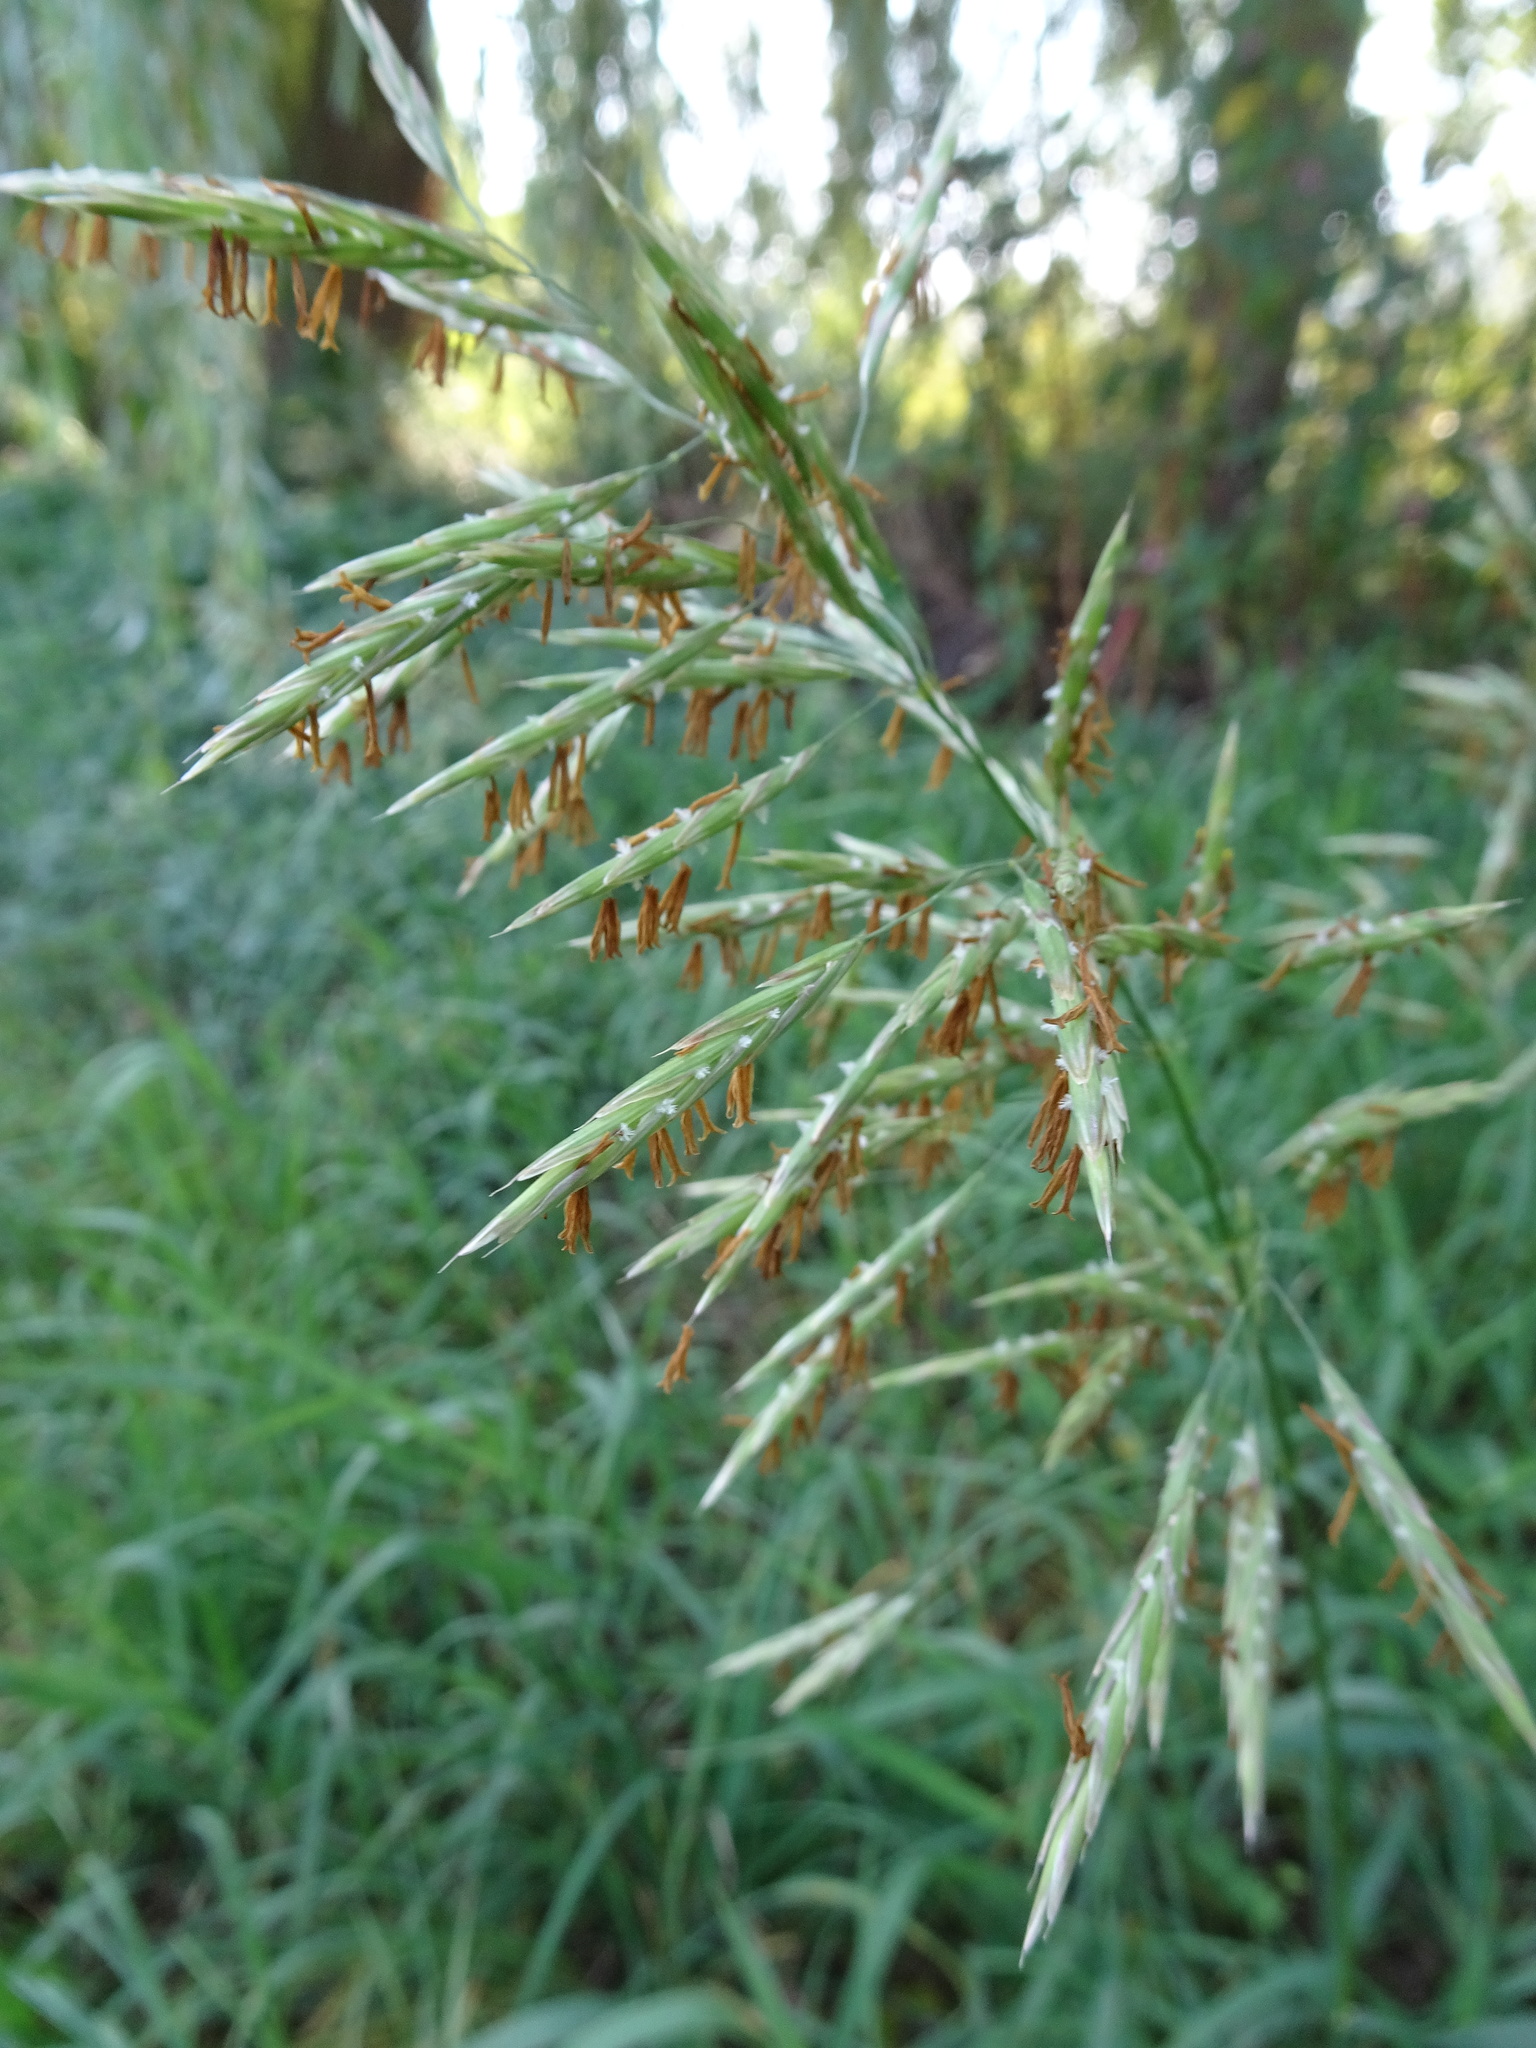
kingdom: Plantae
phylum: Tracheophyta
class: Liliopsida
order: Poales
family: Poaceae
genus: Bromus
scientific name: Bromus inermis
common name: Smooth brome
